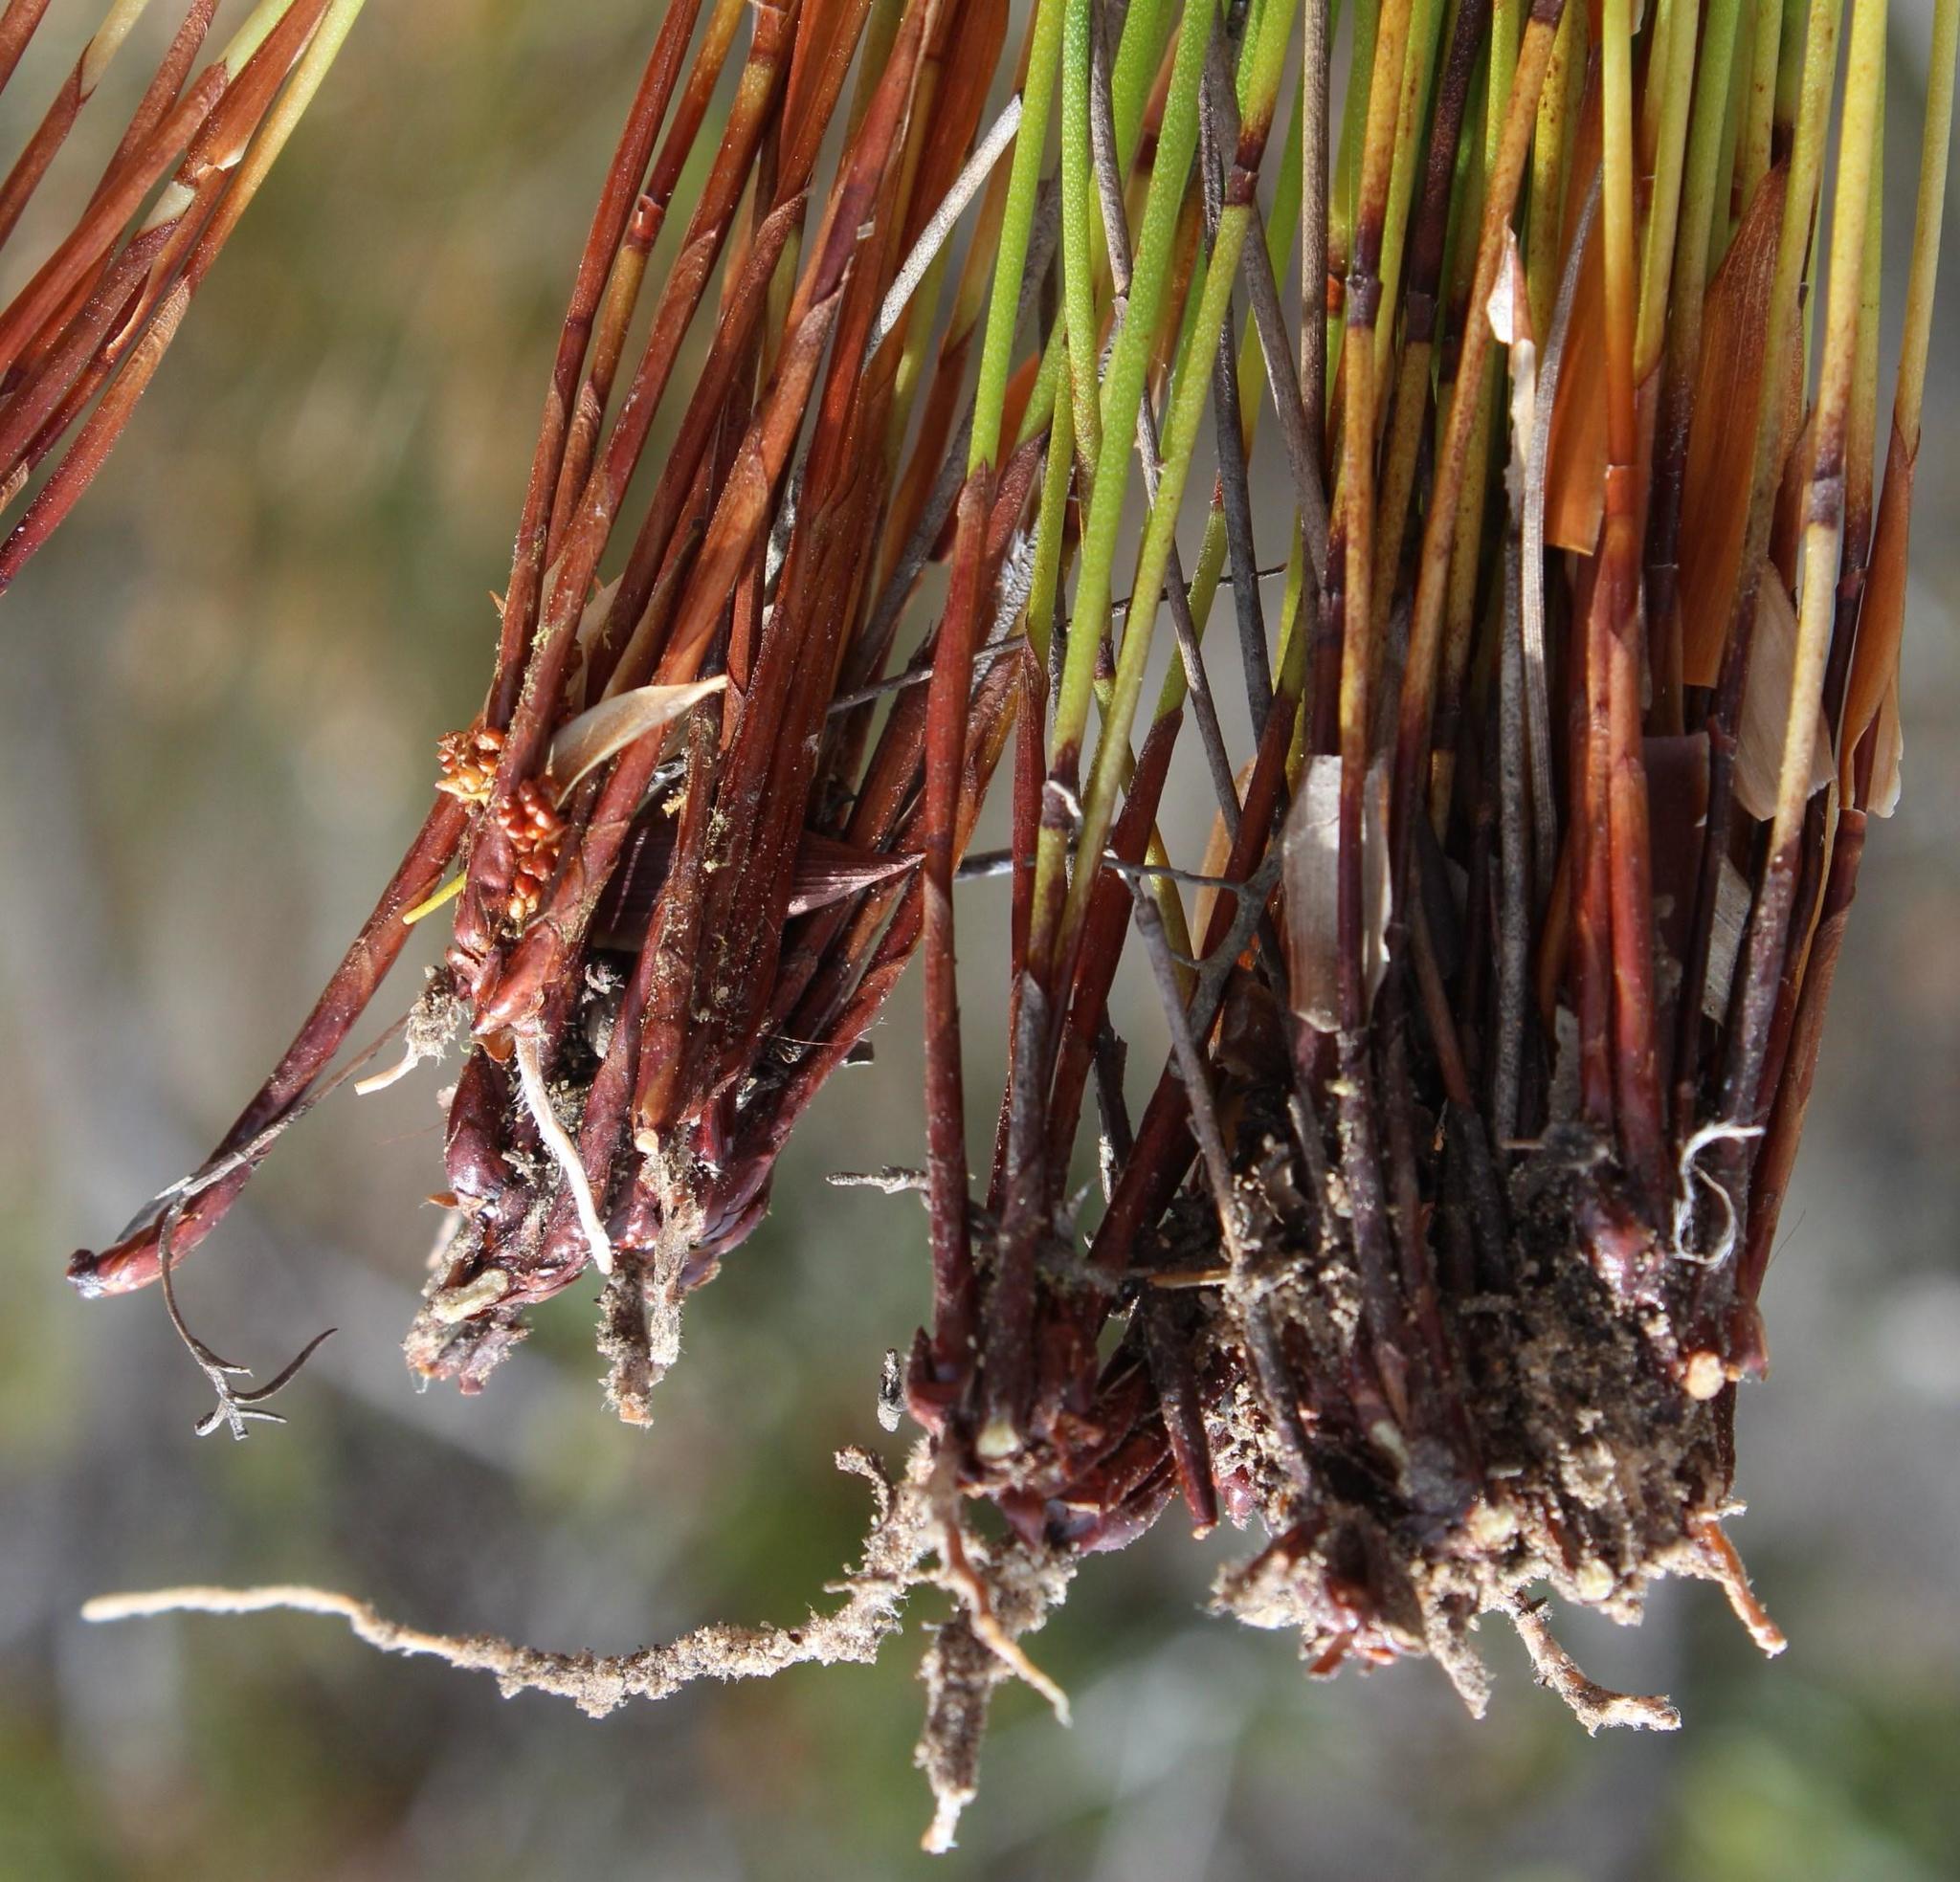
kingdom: Plantae
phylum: Tracheophyta
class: Liliopsida
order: Poales
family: Restionaceae
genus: Elegia
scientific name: Elegia filacea
